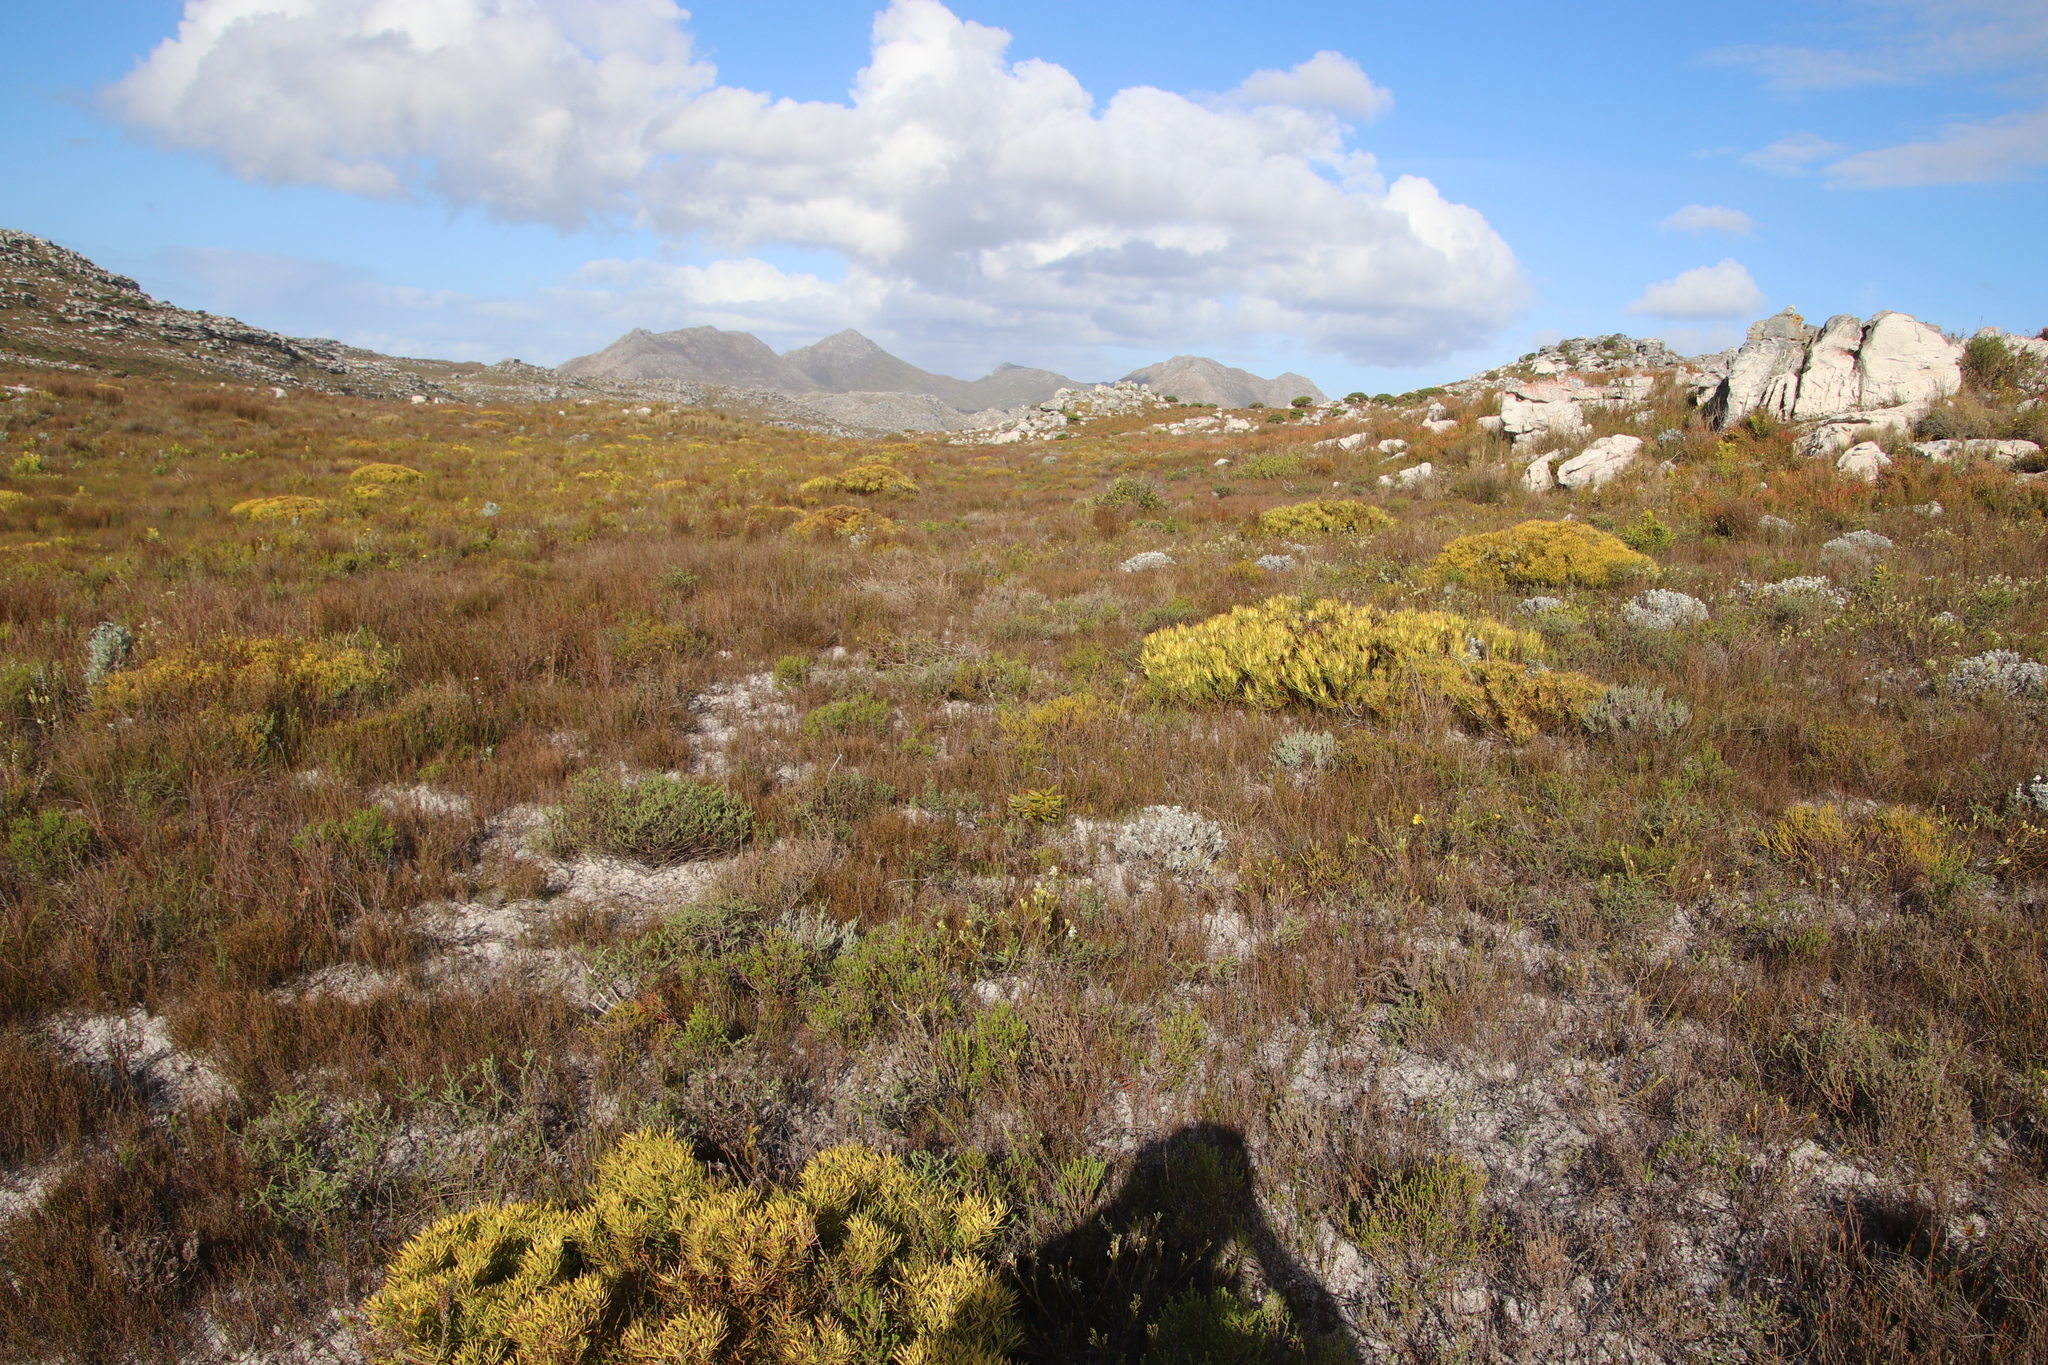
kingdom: Plantae
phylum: Tracheophyta
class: Magnoliopsida
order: Proteales
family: Proteaceae
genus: Leucadendron
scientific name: Leucadendron salignum
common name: Common sunshine conebush
